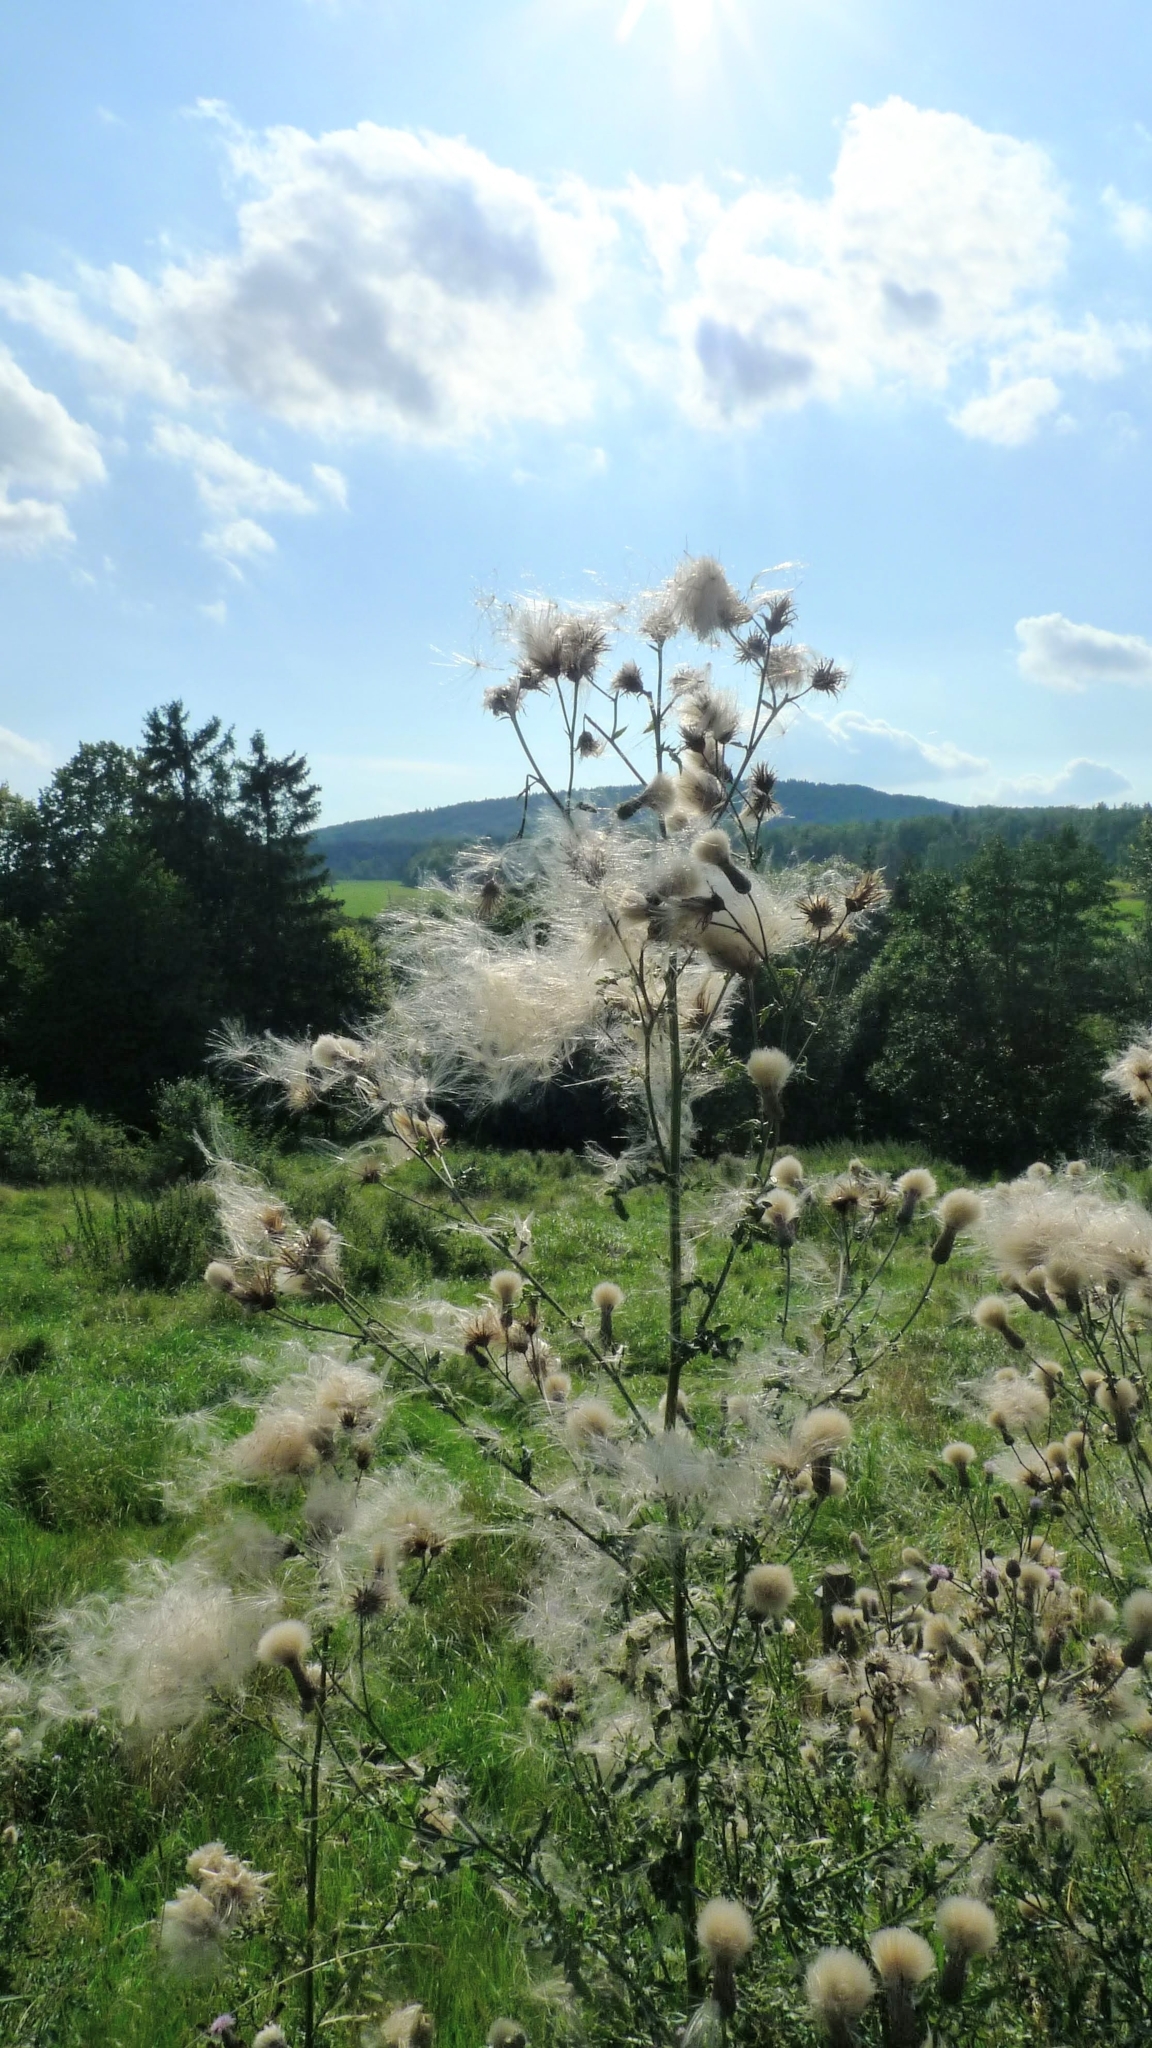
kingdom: Plantae
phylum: Tracheophyta
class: Magnoliopsida
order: Asterales
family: Asteraceae
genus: Cirsium
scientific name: Cirsium arvense
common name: Creeping thistle
